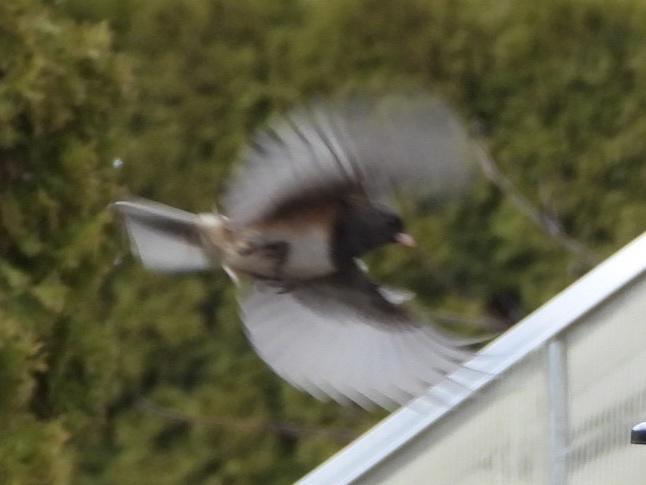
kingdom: Animalia
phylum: Chordata
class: Aves
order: Passeriformes
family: Passerellidae
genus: Junco
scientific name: Junco hyemalis
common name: Dark-eyed junco
